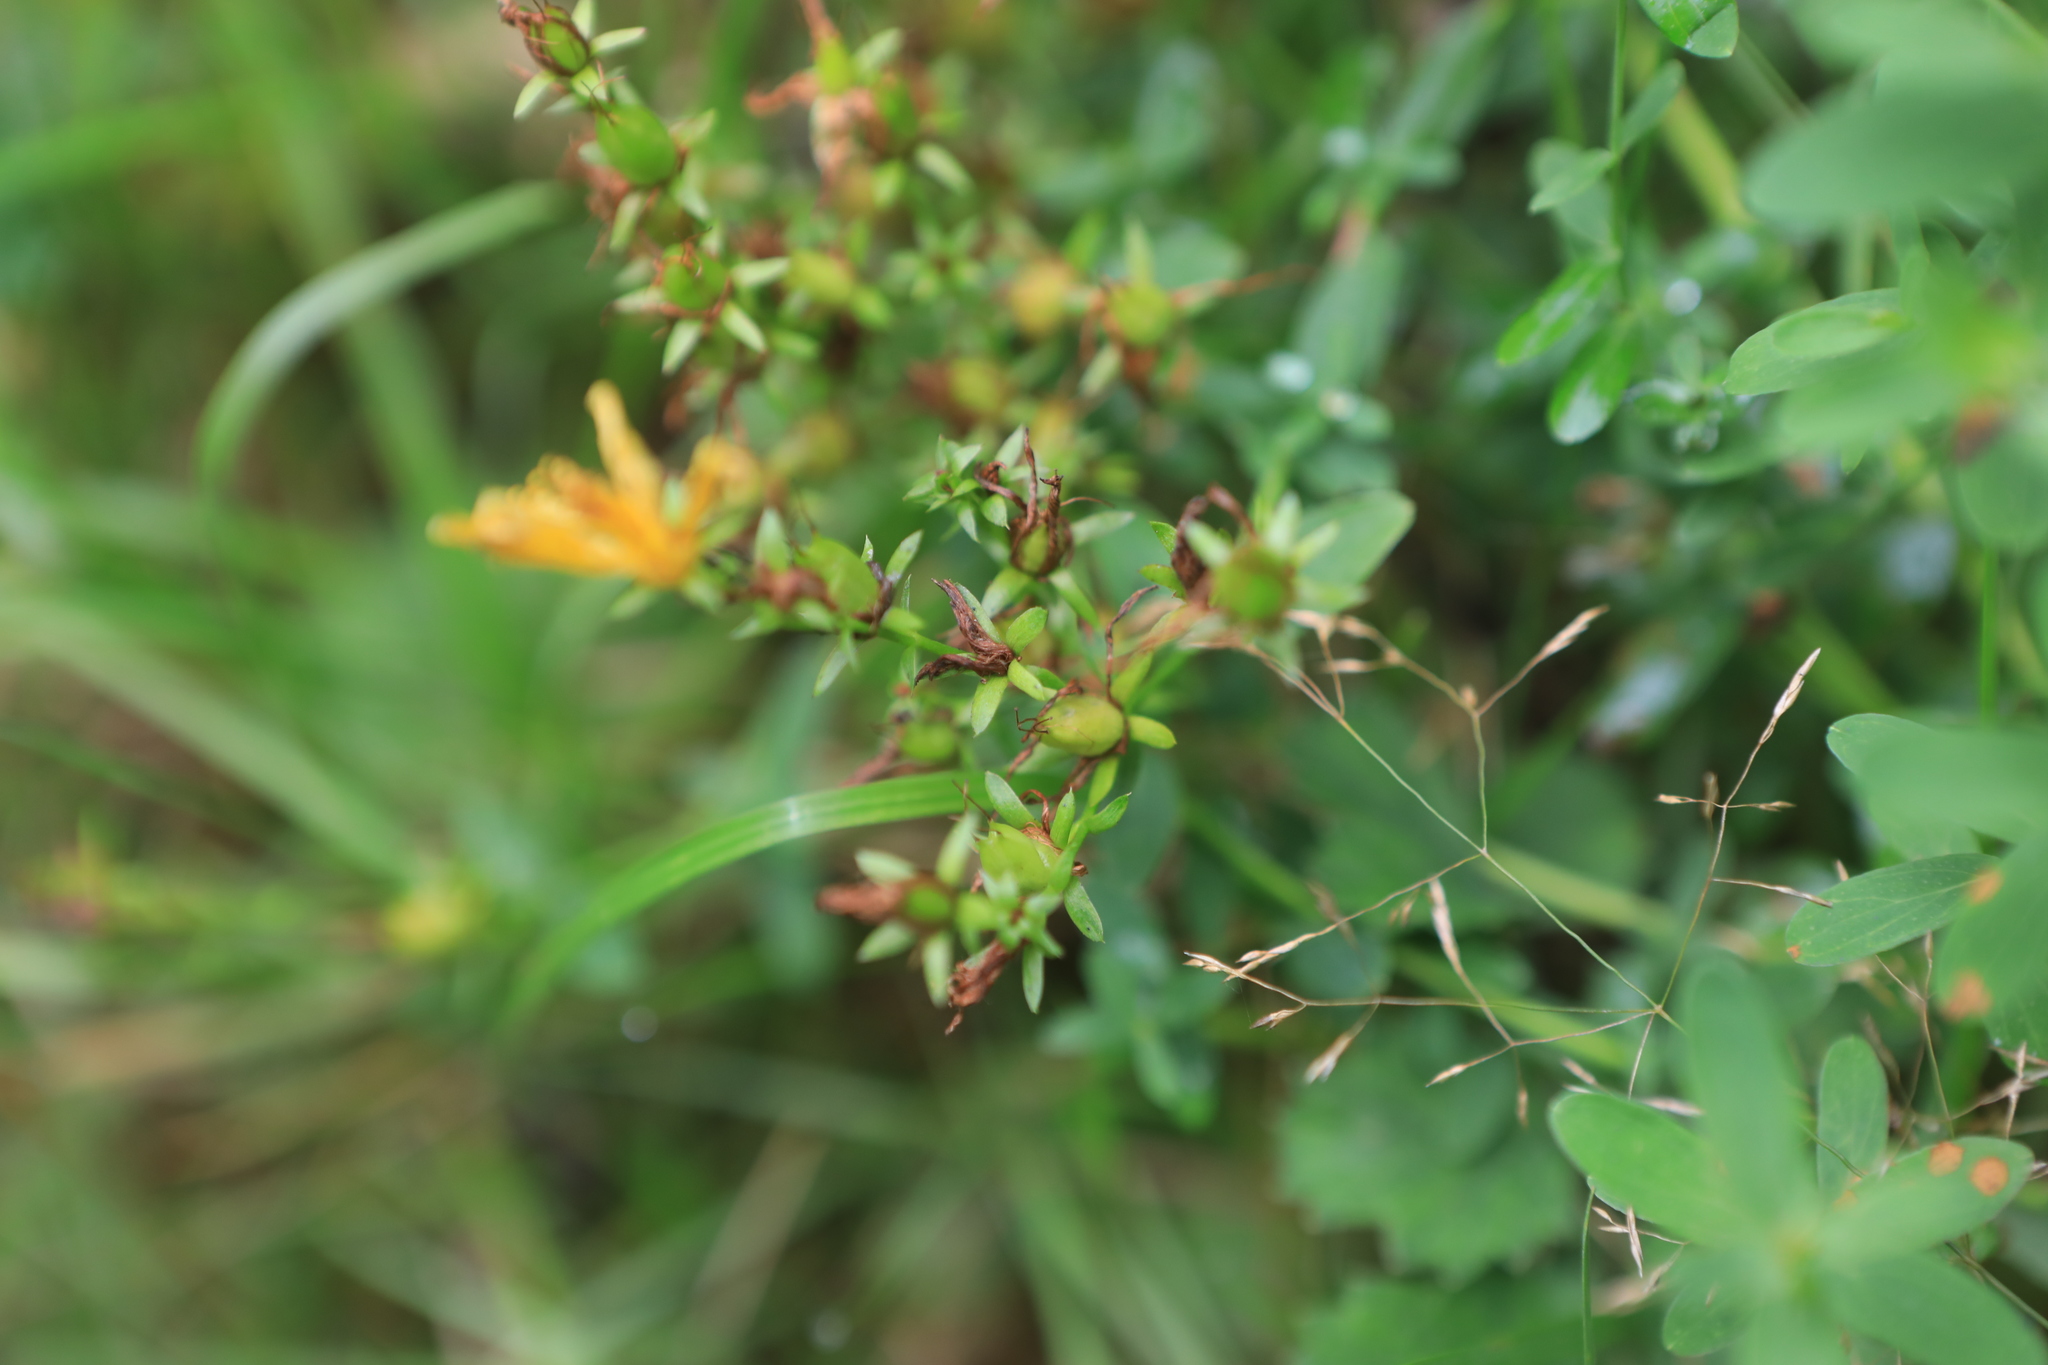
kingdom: Plantae
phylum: Tracheophyta
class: Magnoliopsida
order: Malpighiales
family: Hypericaceae
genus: Hypericum
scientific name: Hypericum perforatum
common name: Common st. johnswort
